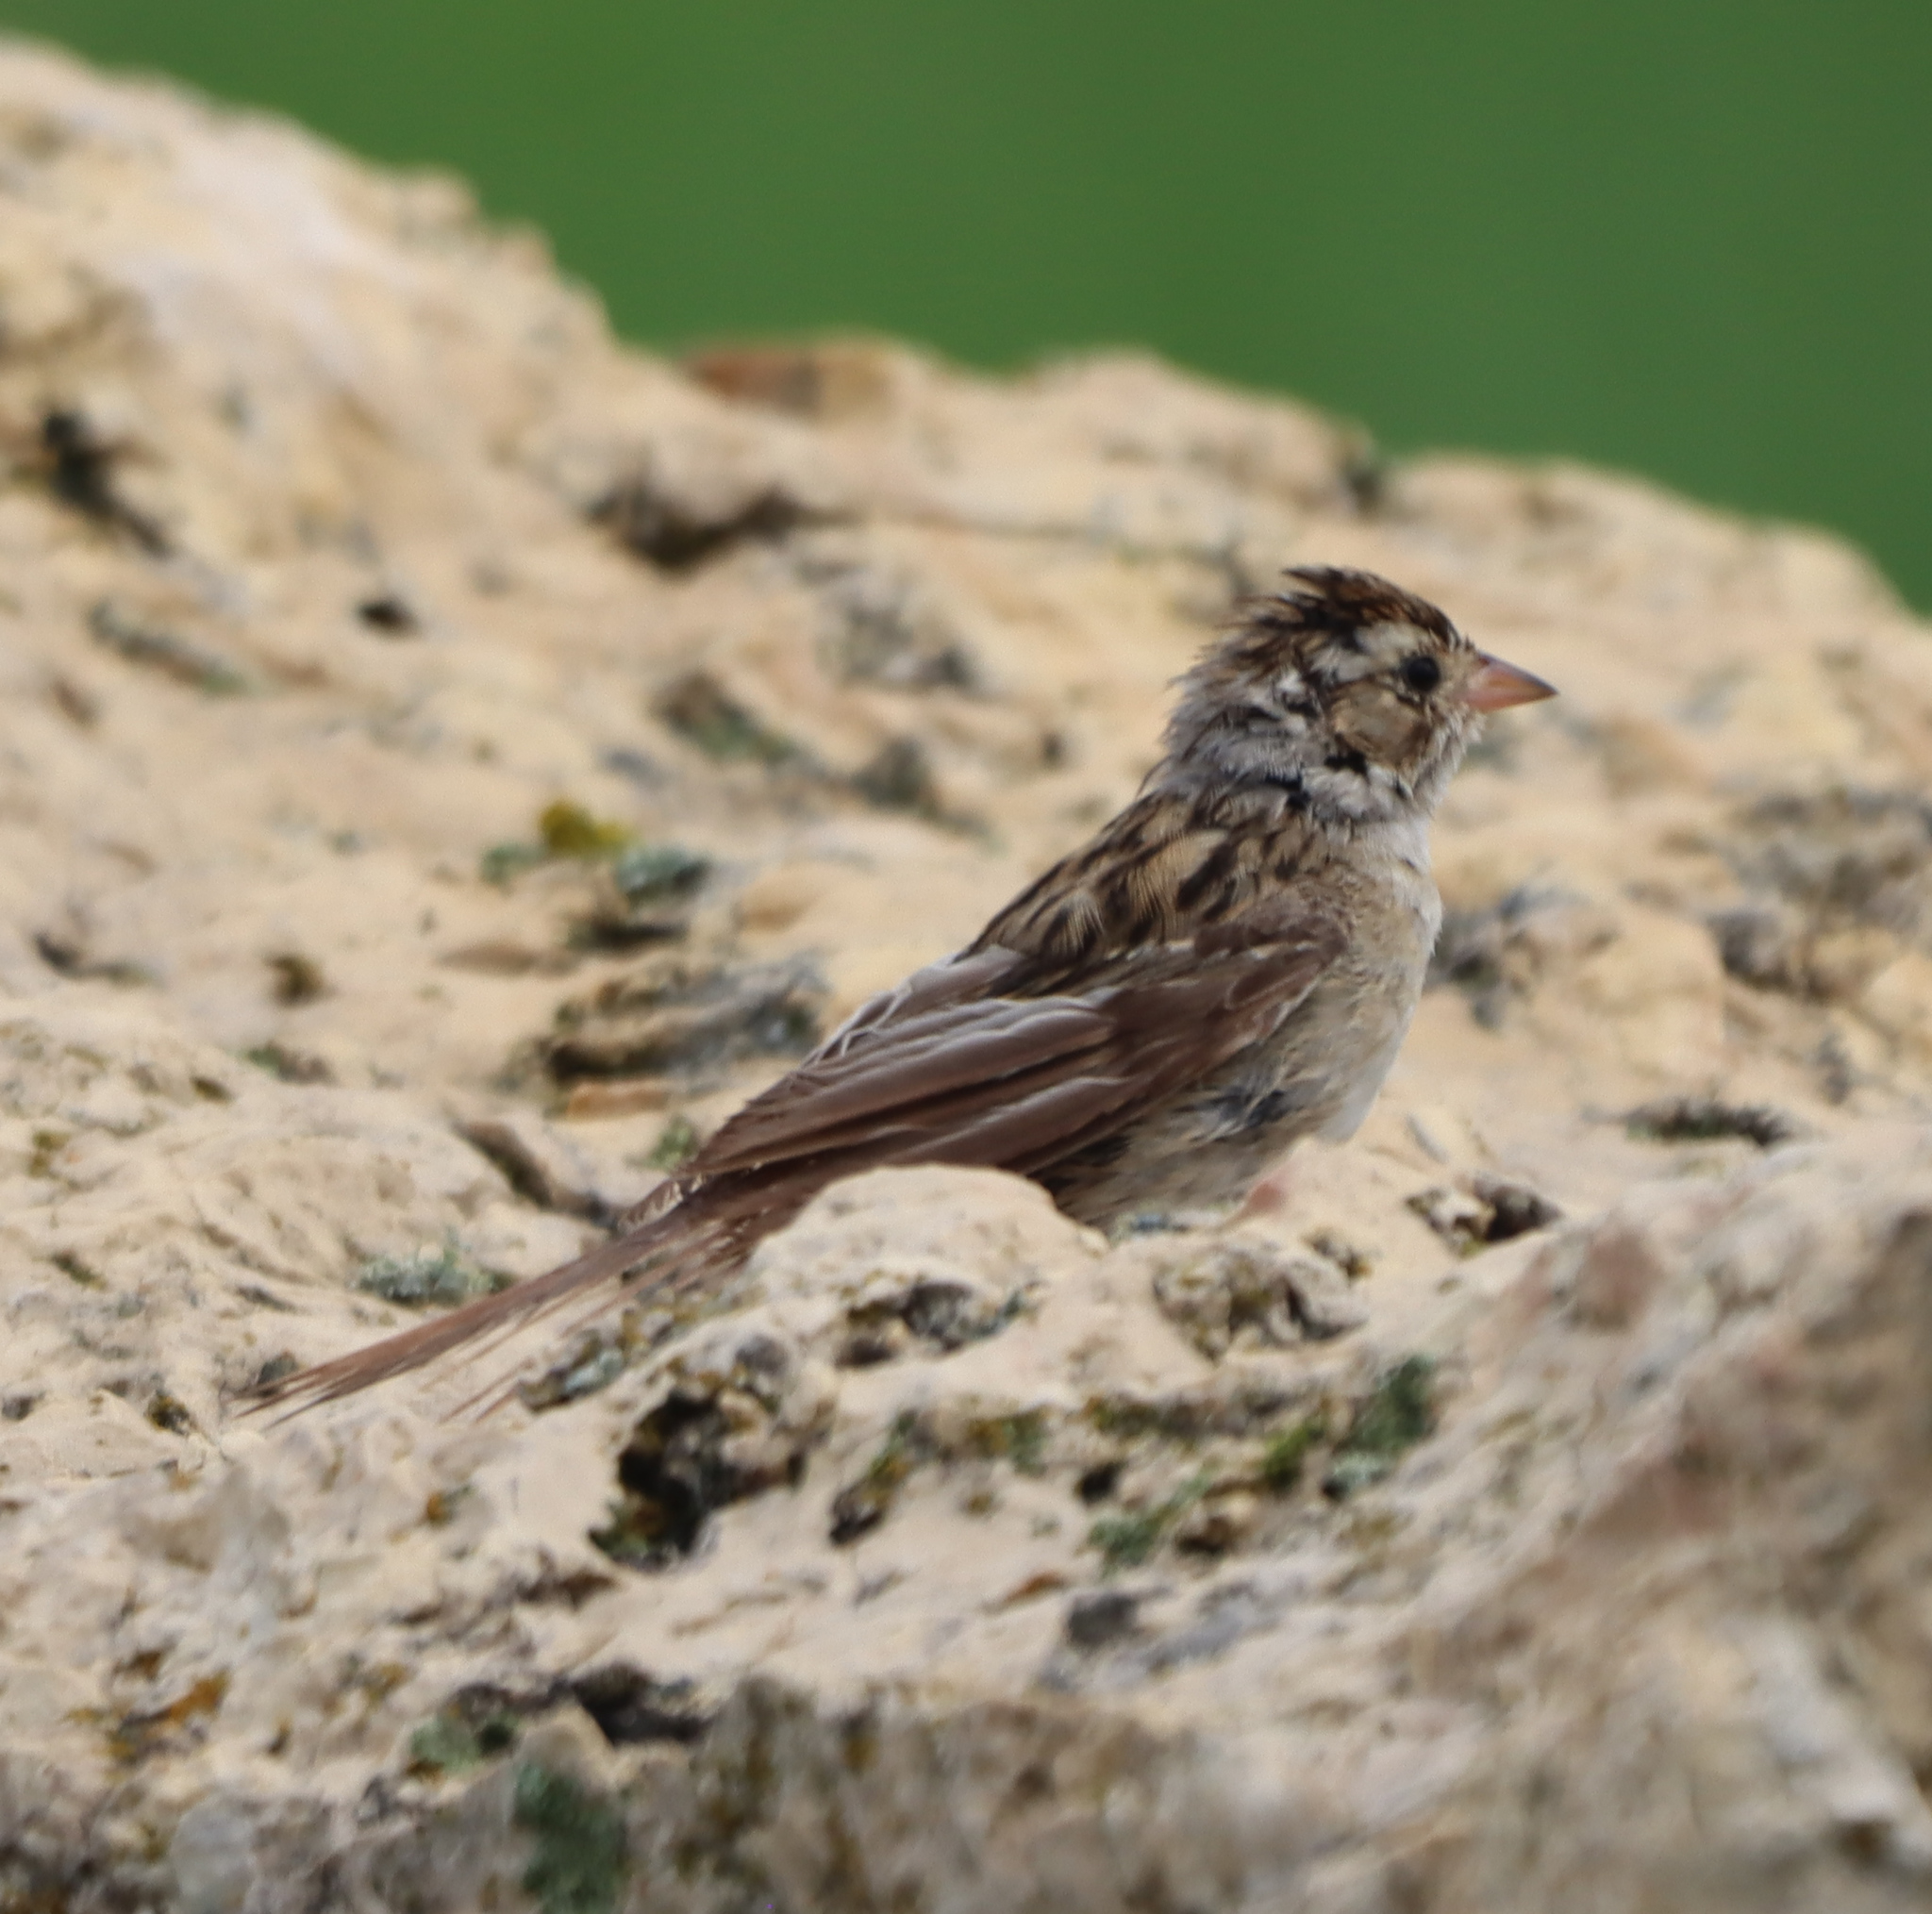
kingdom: Animalia
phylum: Chordata
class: Aves
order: Passeriformes
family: Passerellidae
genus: Spizella
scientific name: Spizella pallida
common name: Clay-colored sparrow
